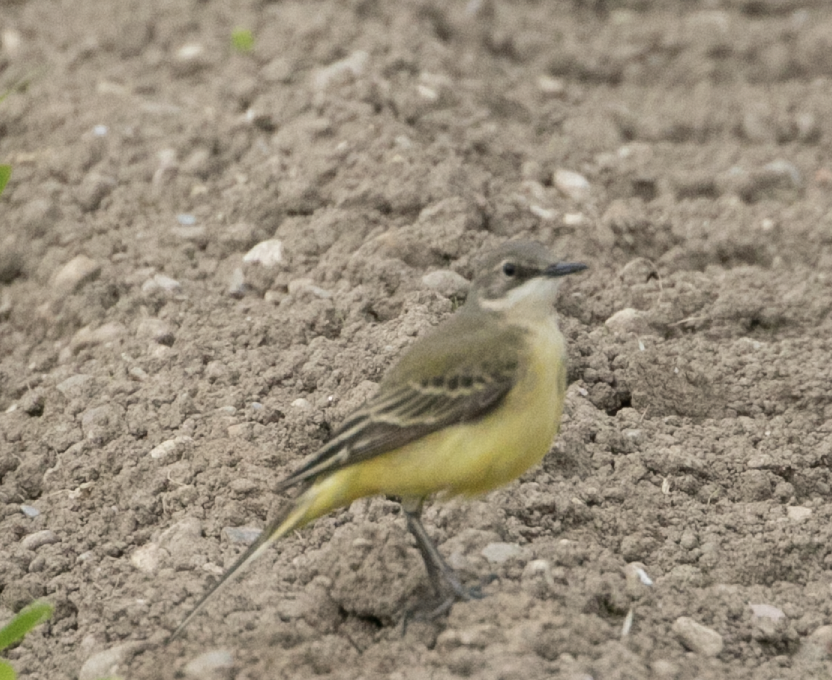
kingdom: Animalia
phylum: Chordata
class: Aves
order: Passeriformes
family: Motacillidae
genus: Motacilla
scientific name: Motacilla flava
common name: Western yellow wagtail
